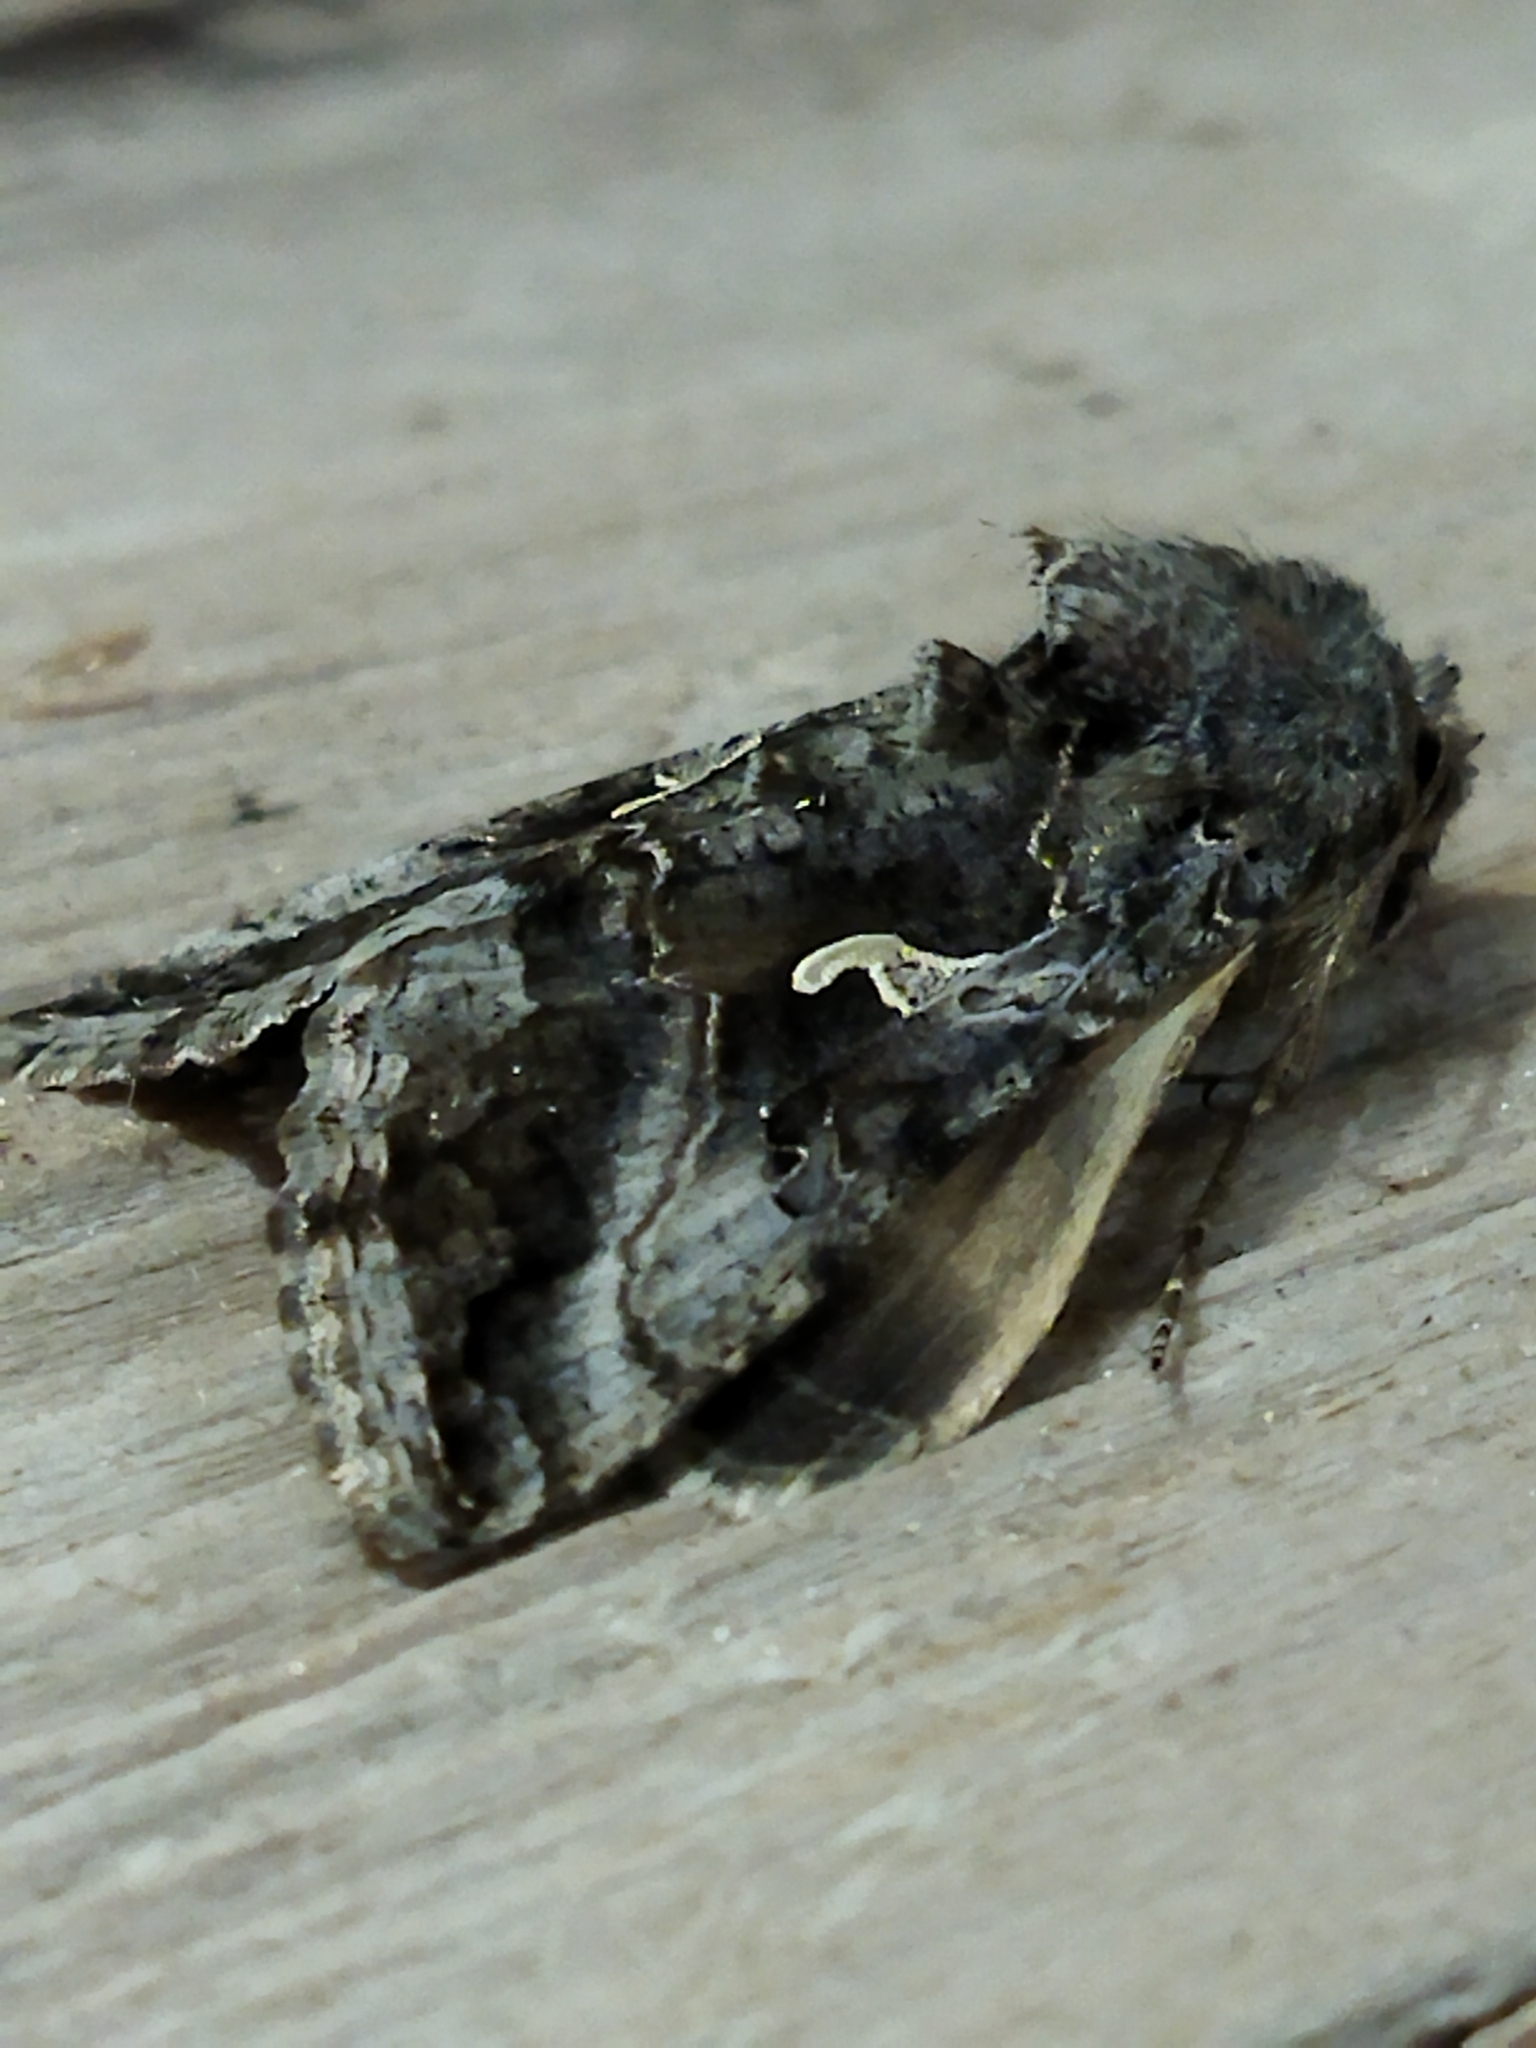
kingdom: Animalia
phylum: Arthropoda
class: Insecta
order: Lepidoptera
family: Noctuidae
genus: Autographa
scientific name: Autographa gamma
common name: Silver y
